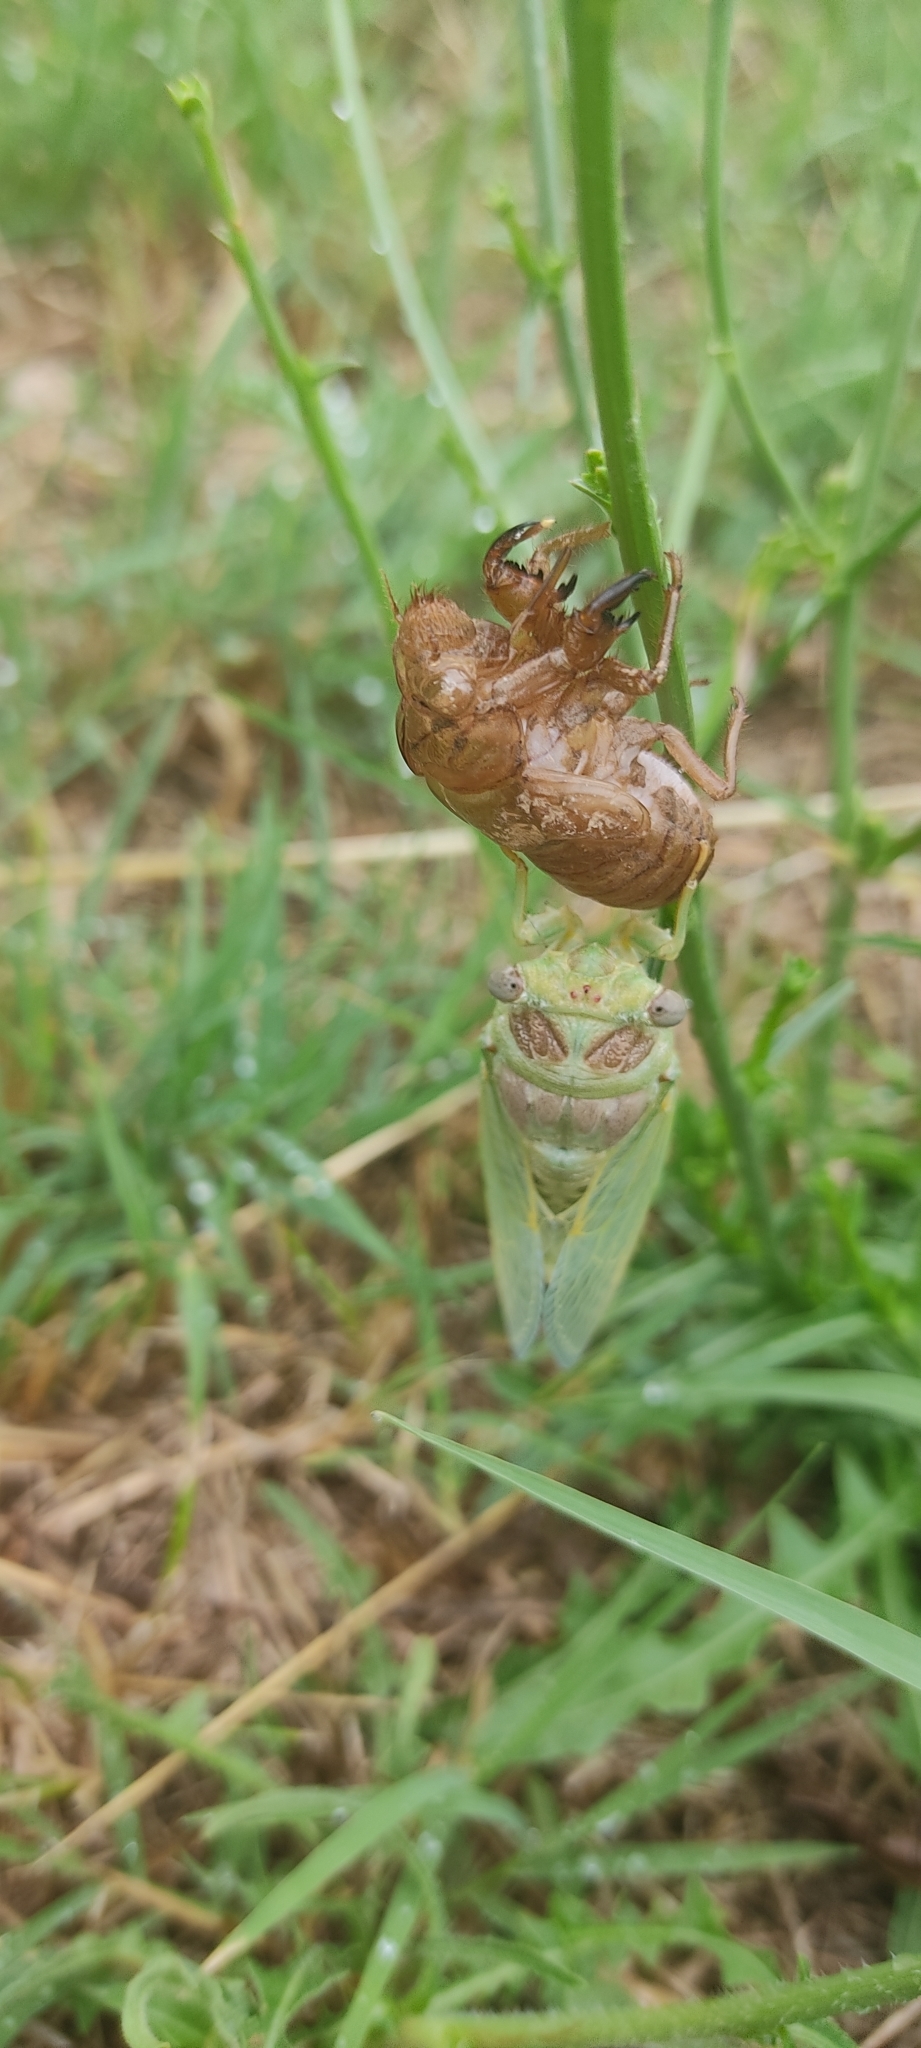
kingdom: Animalia
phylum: Arthropoda
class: Insecta
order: Hemiptera
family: Cicadidae
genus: Lyristes
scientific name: Lyristes plebejus
